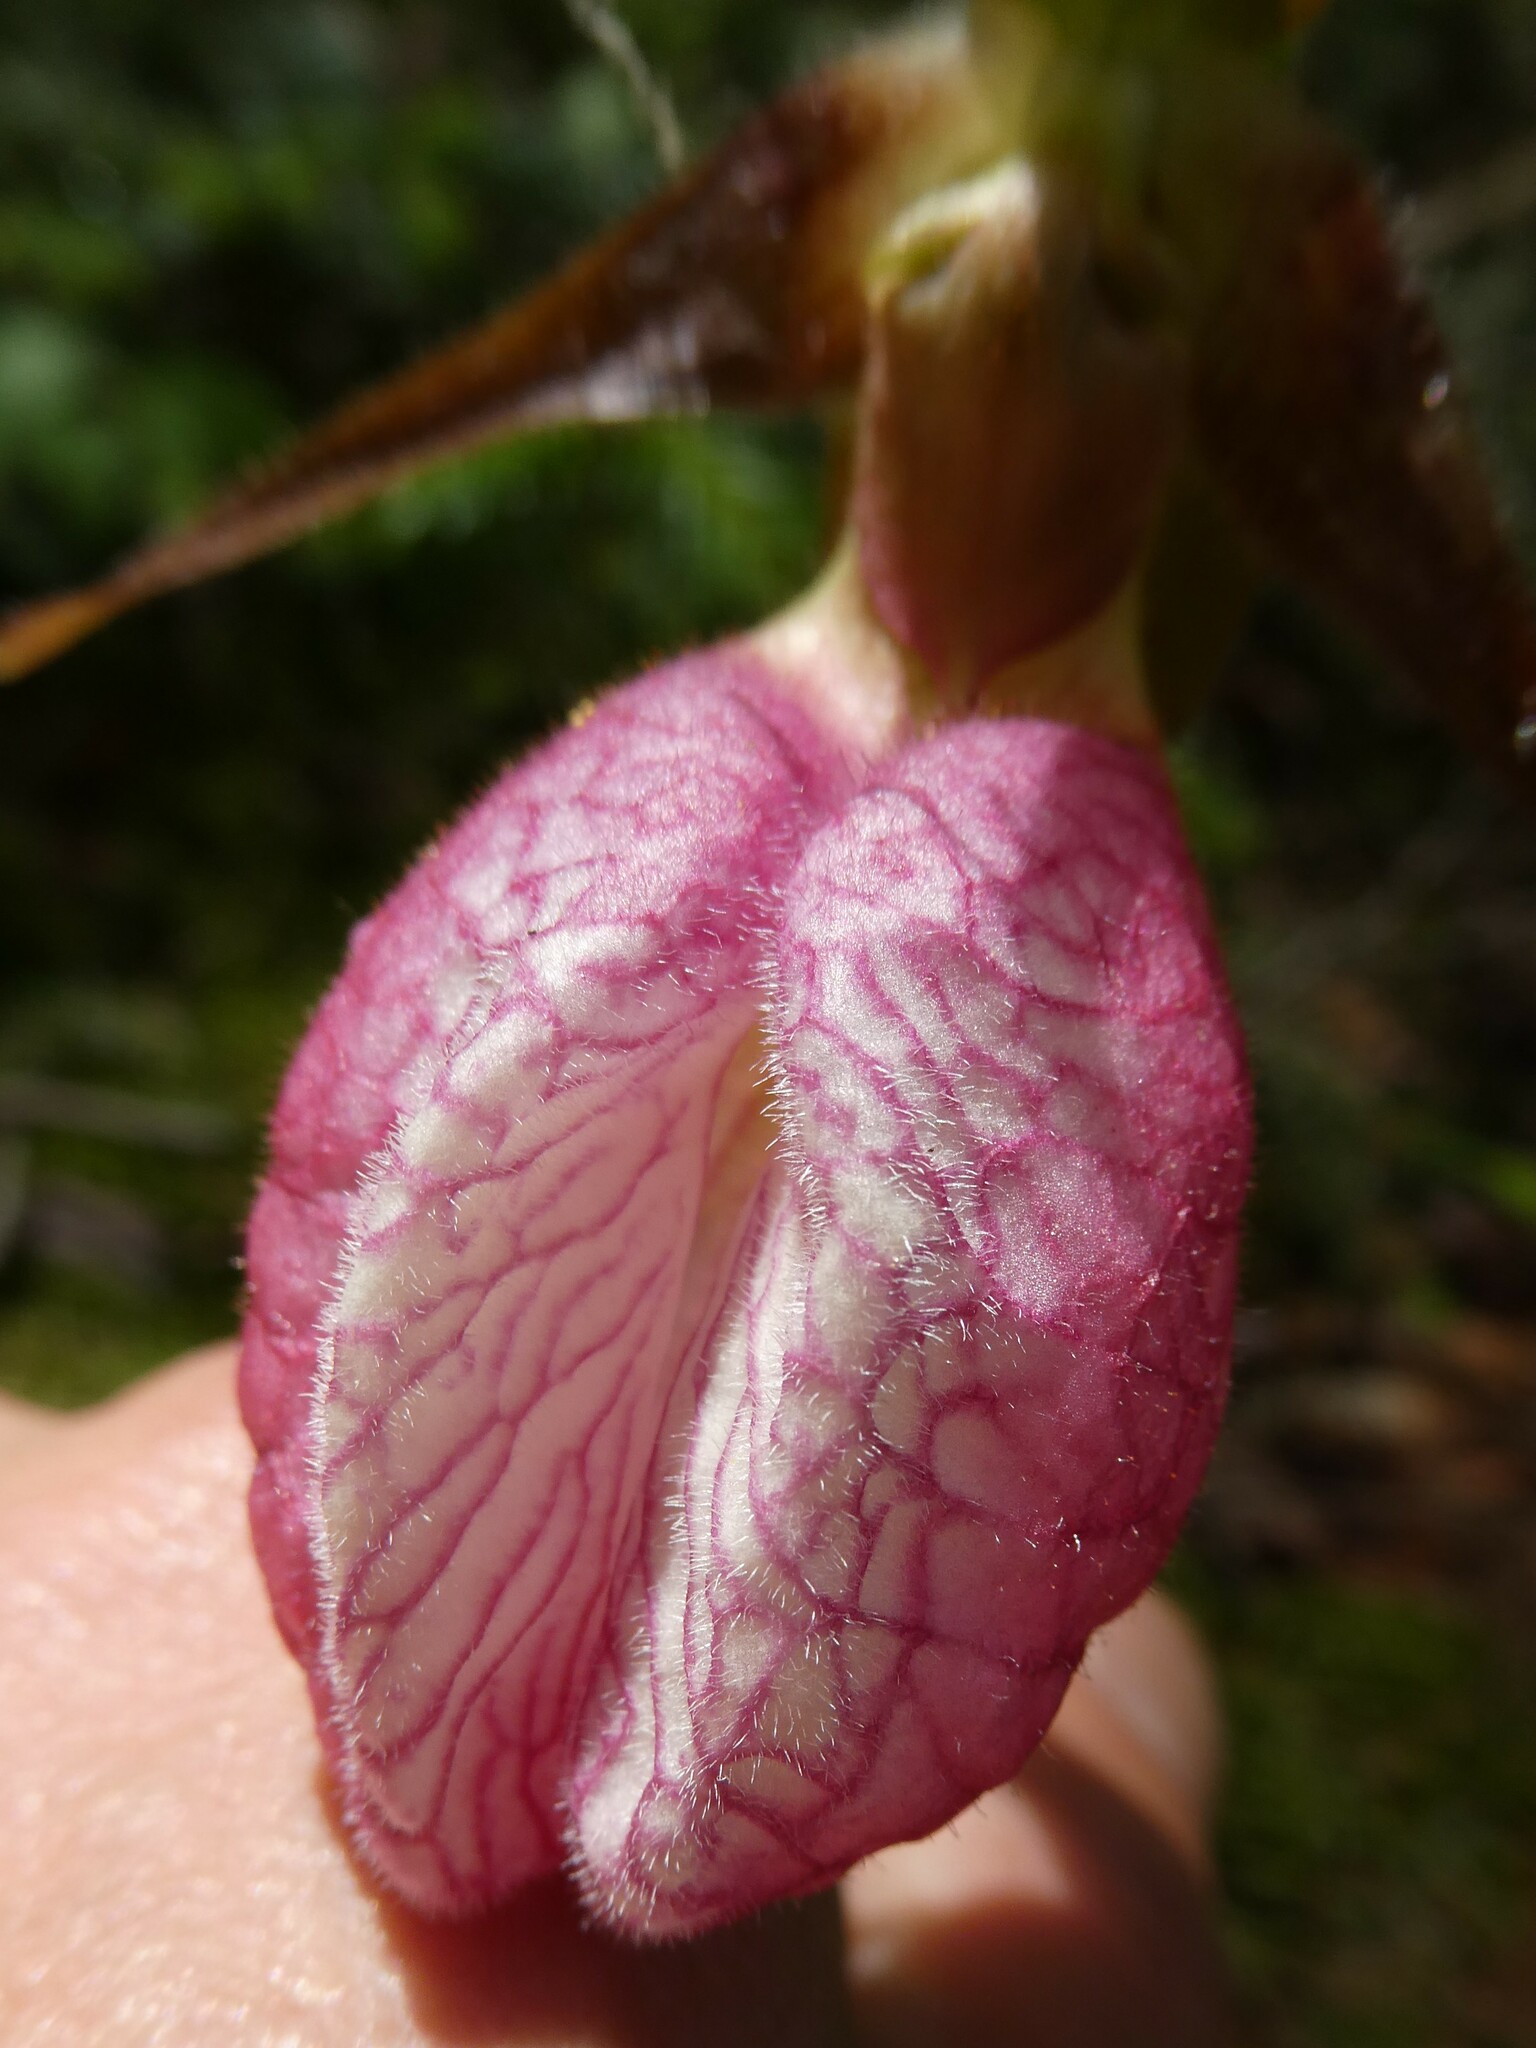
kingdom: Plantae
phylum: Tracheophyta
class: Liliopsida
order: Asparagales
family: Orchidaceae
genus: Cypripedium
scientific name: Cypripedium acaule
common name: Pink lady's-slipper
